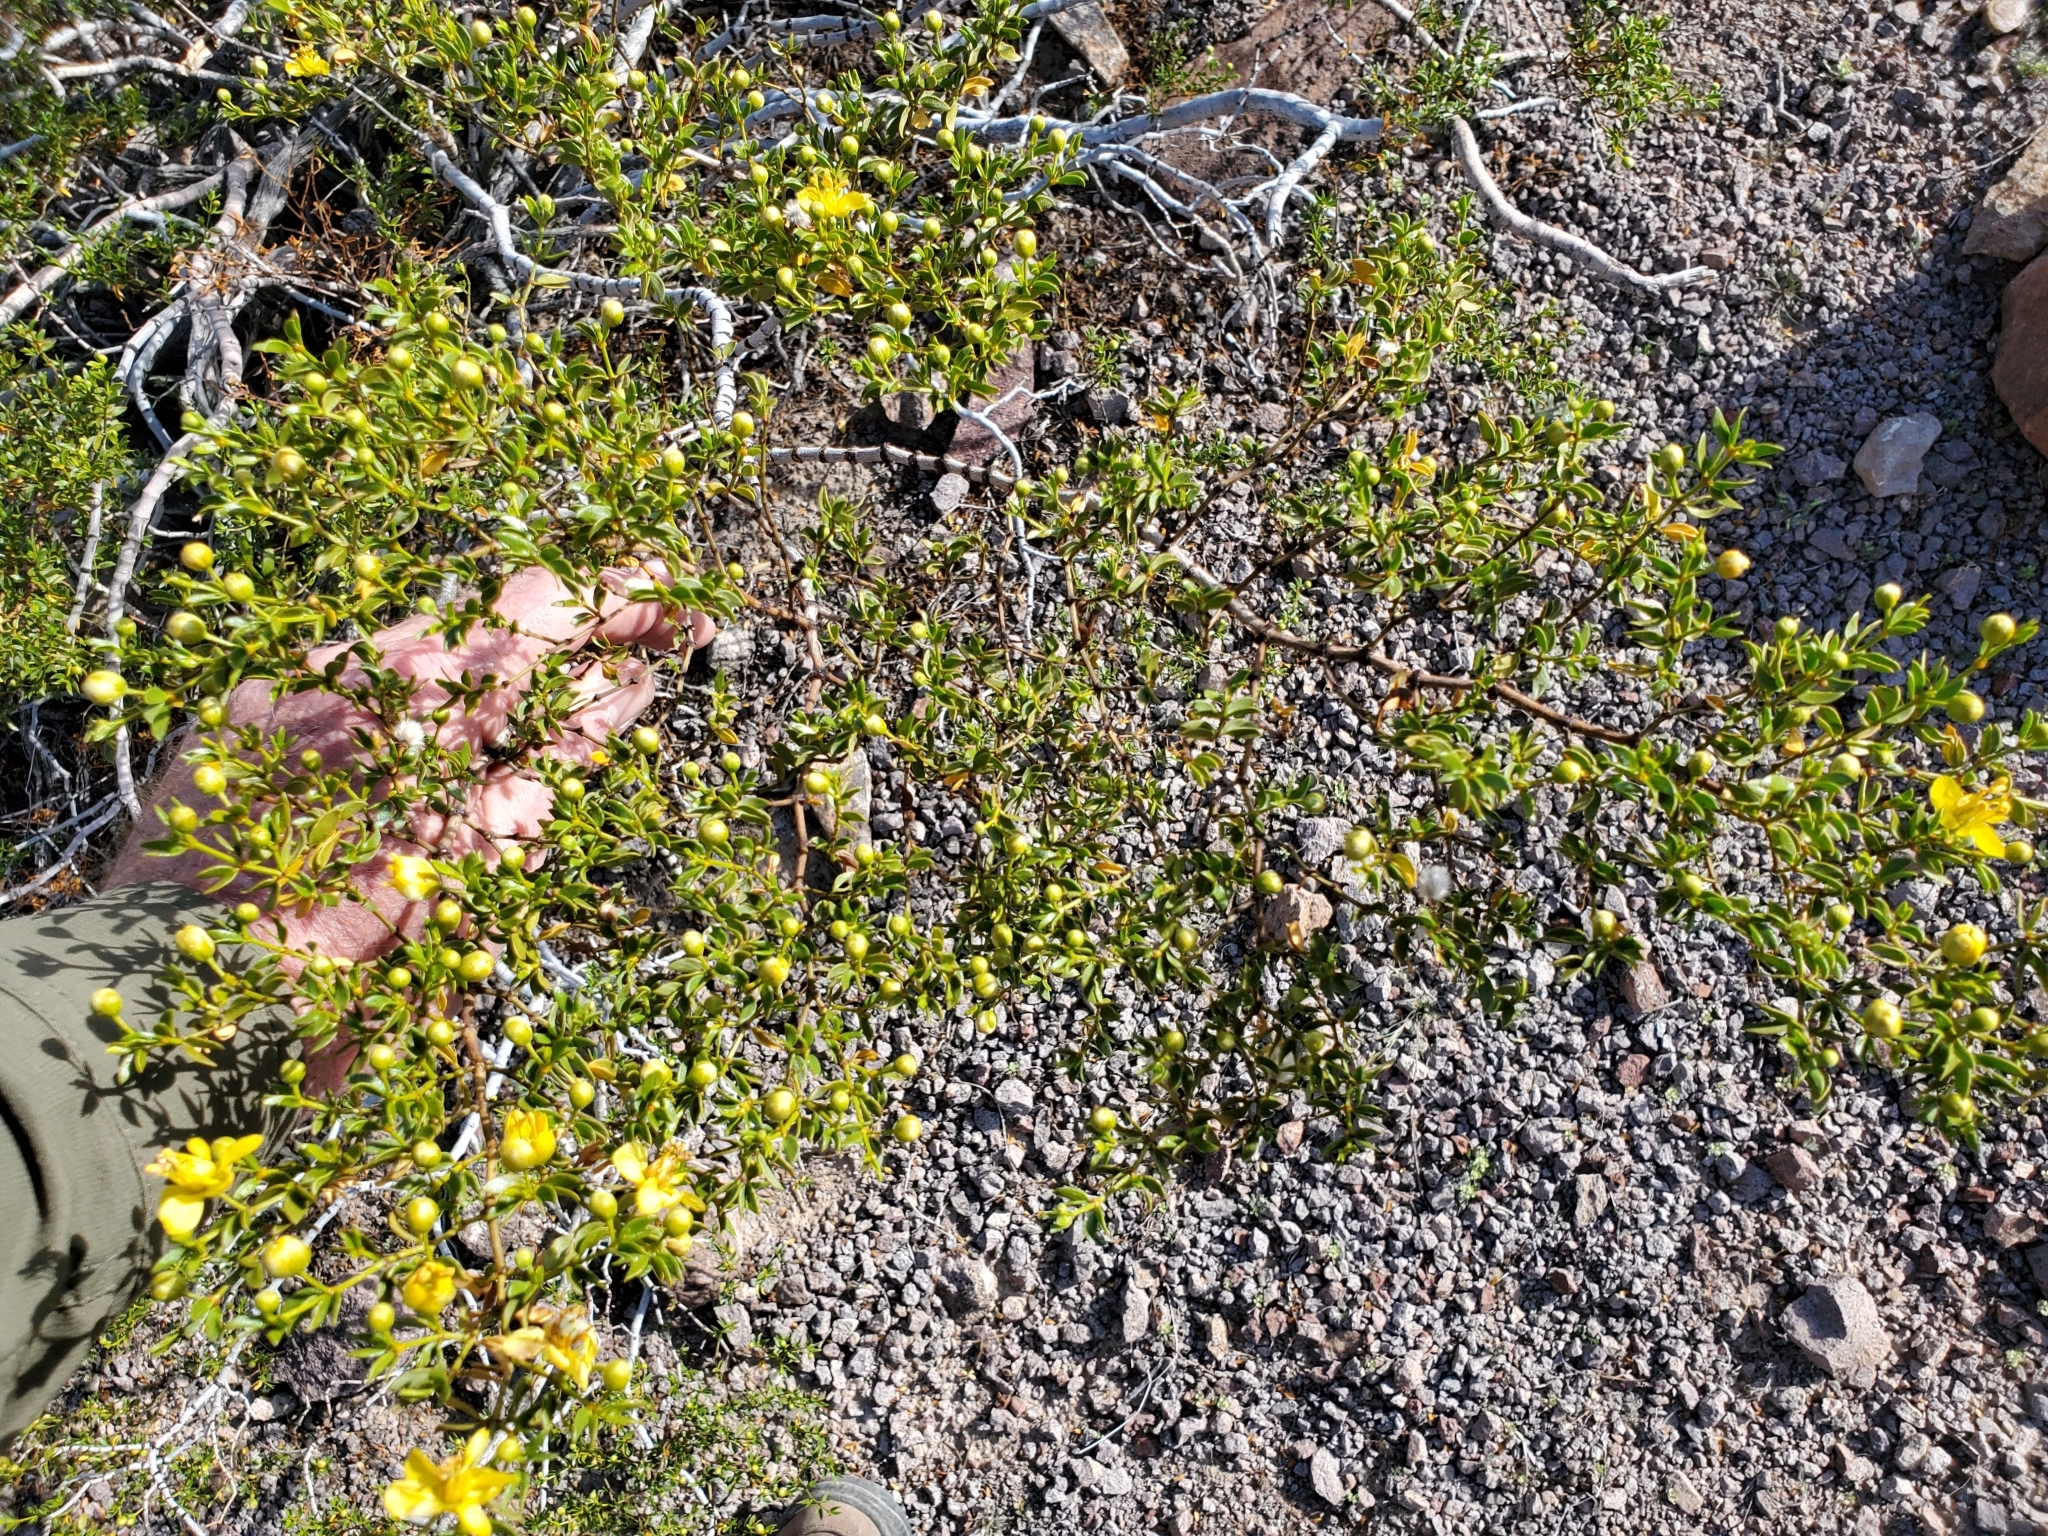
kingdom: Plantae
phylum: Tracheophyta
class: Magnoliopsida
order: Zygophyllales
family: Zygophyllaceae
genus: Larrea
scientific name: Larrea tridentata
